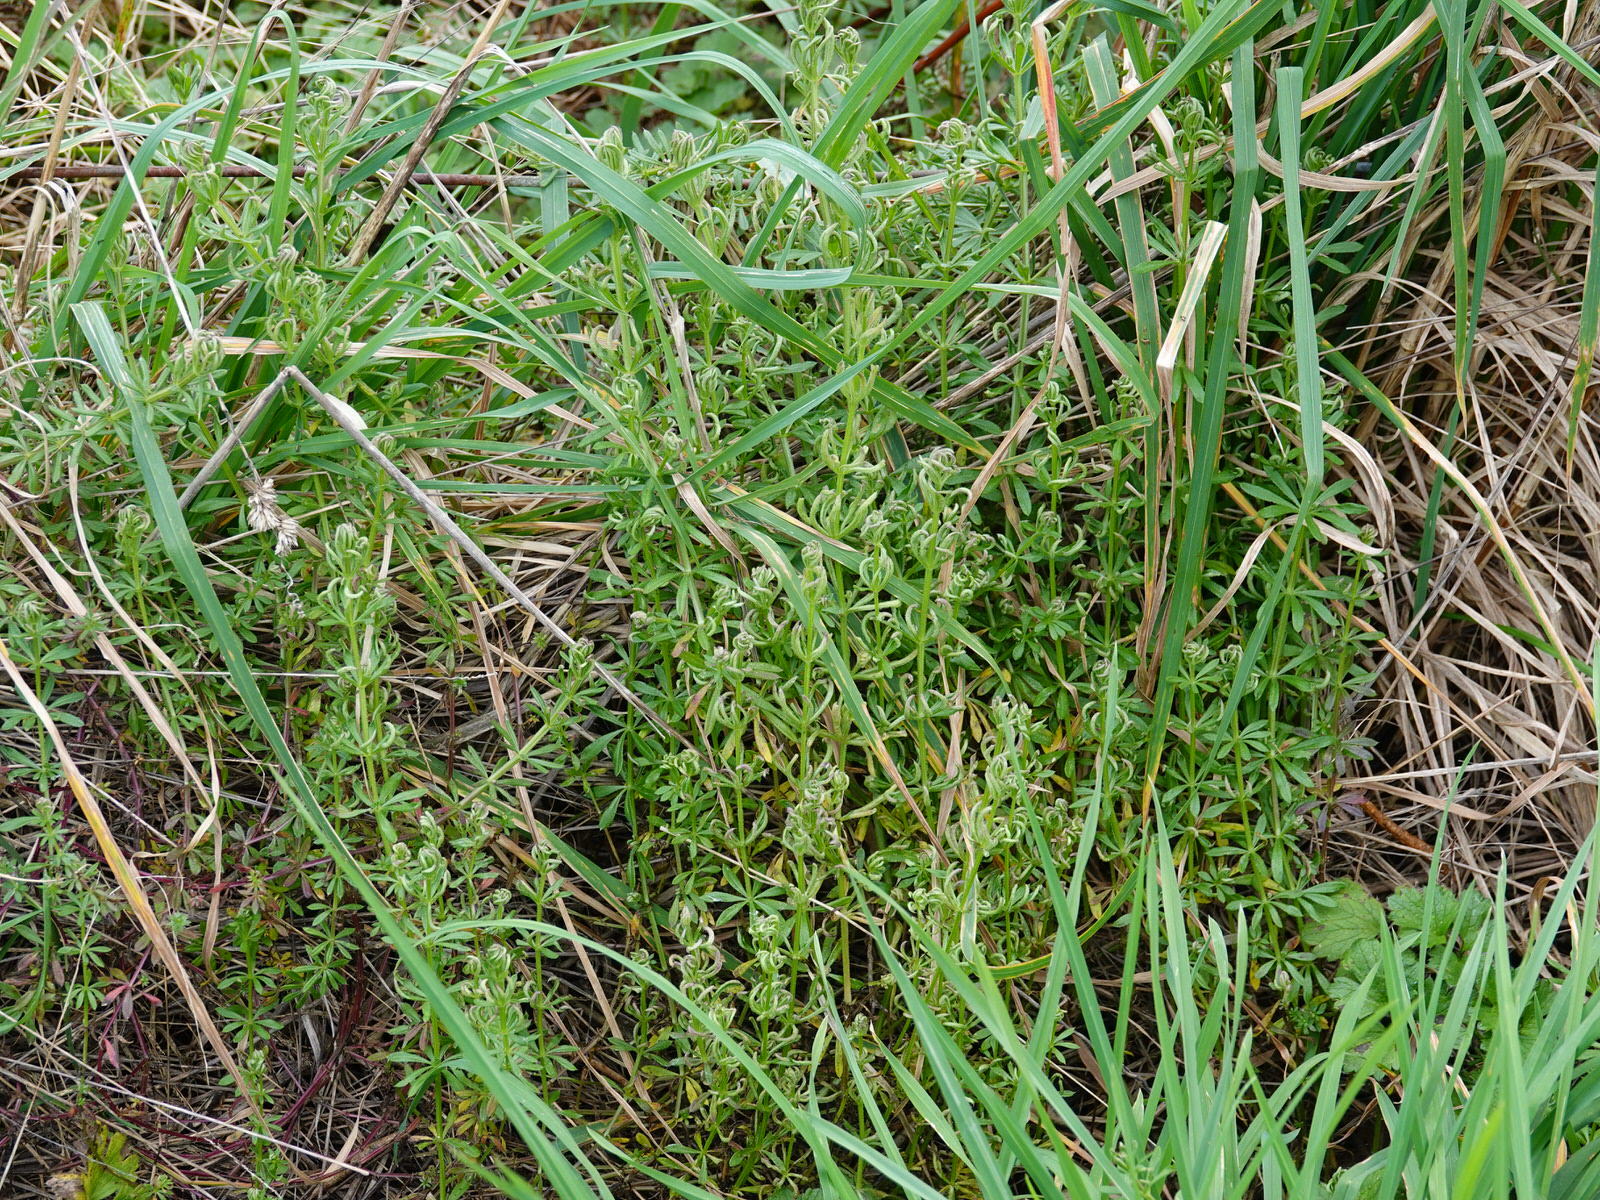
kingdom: Plantae
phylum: Tracheophyta
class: Magnoliopsida
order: Gentianales
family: Rubiaceae
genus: Galium
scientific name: Galium aparine
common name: Cleavers
